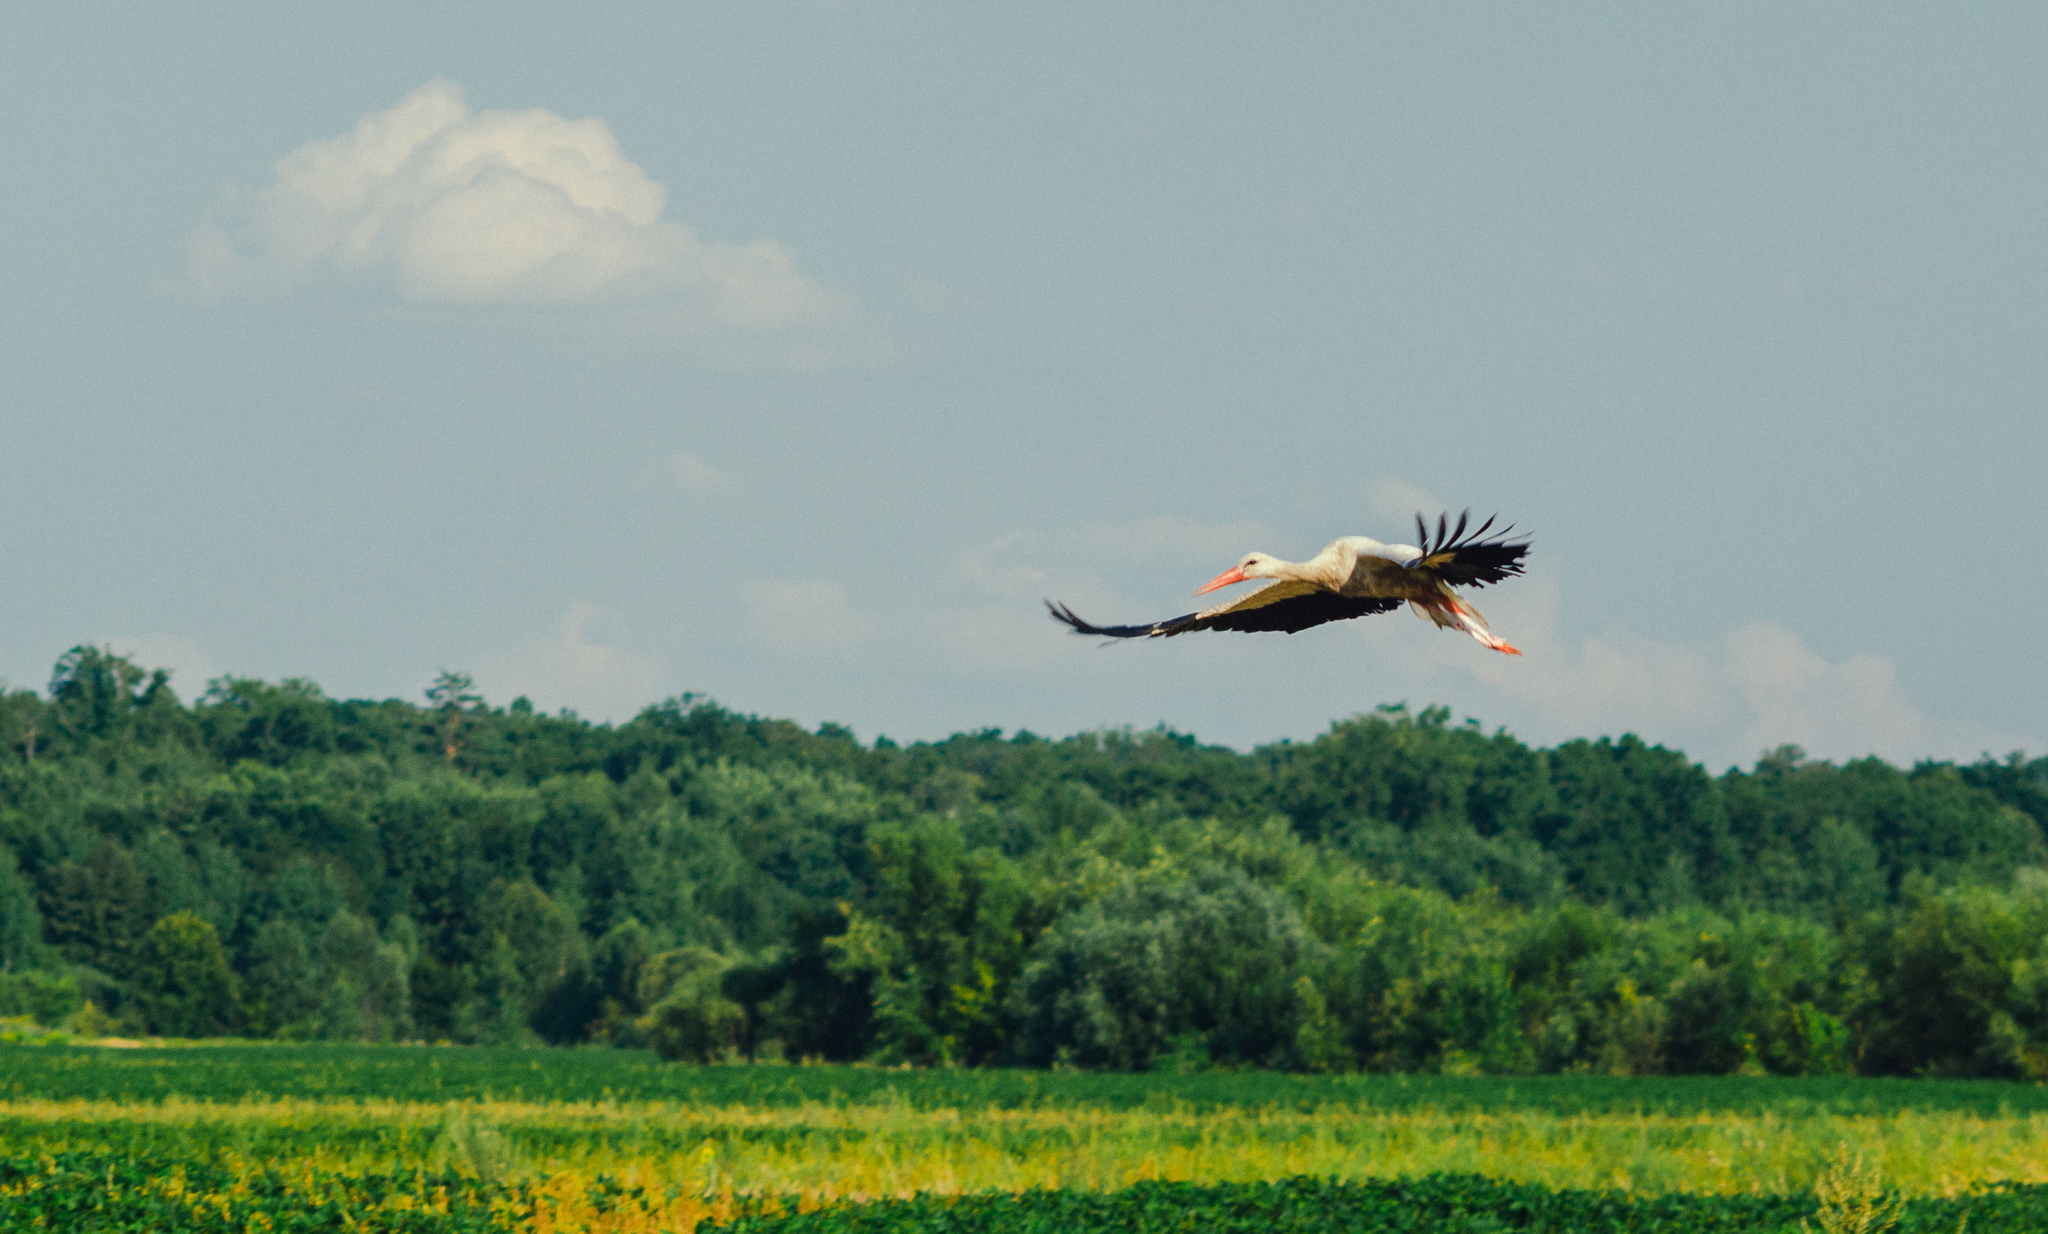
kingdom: Animalia
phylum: Chordata
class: Aves
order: Ciconiiformes
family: Ciconiidae
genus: Ciconia
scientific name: Ciconia ciconia
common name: White stork
